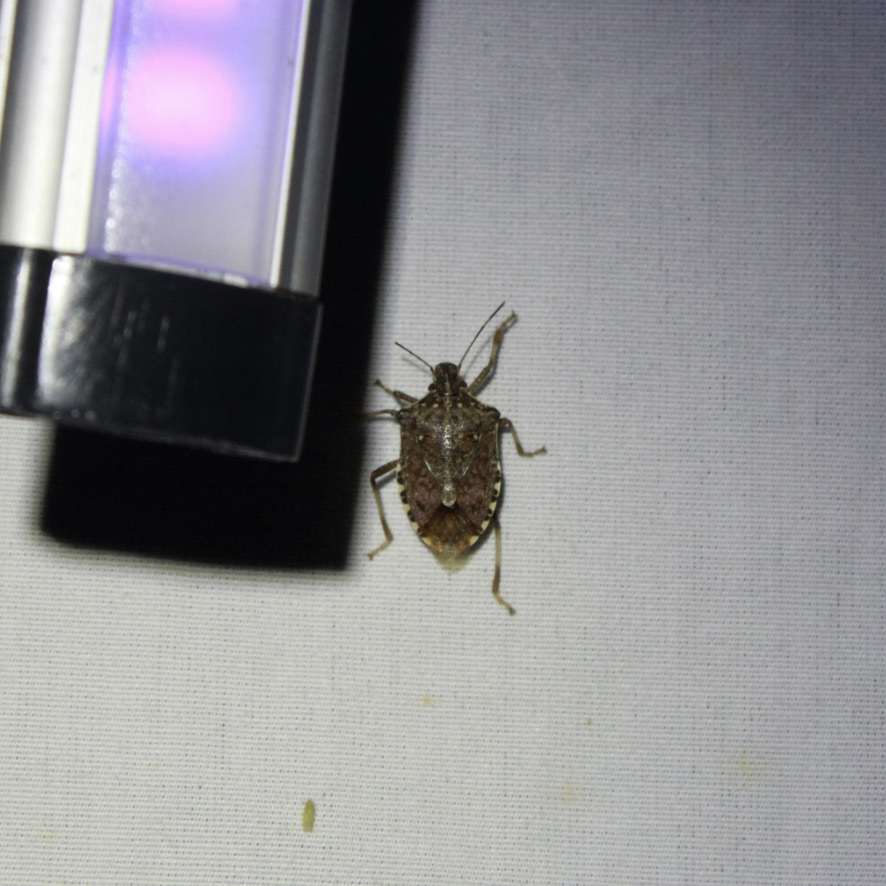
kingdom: Animalia
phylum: Arthropoda
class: Insecta
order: Hemiptera
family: Pentatomidae
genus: Halyomorpha
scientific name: Halyomorpha halys
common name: Brown marmorated stink bug
